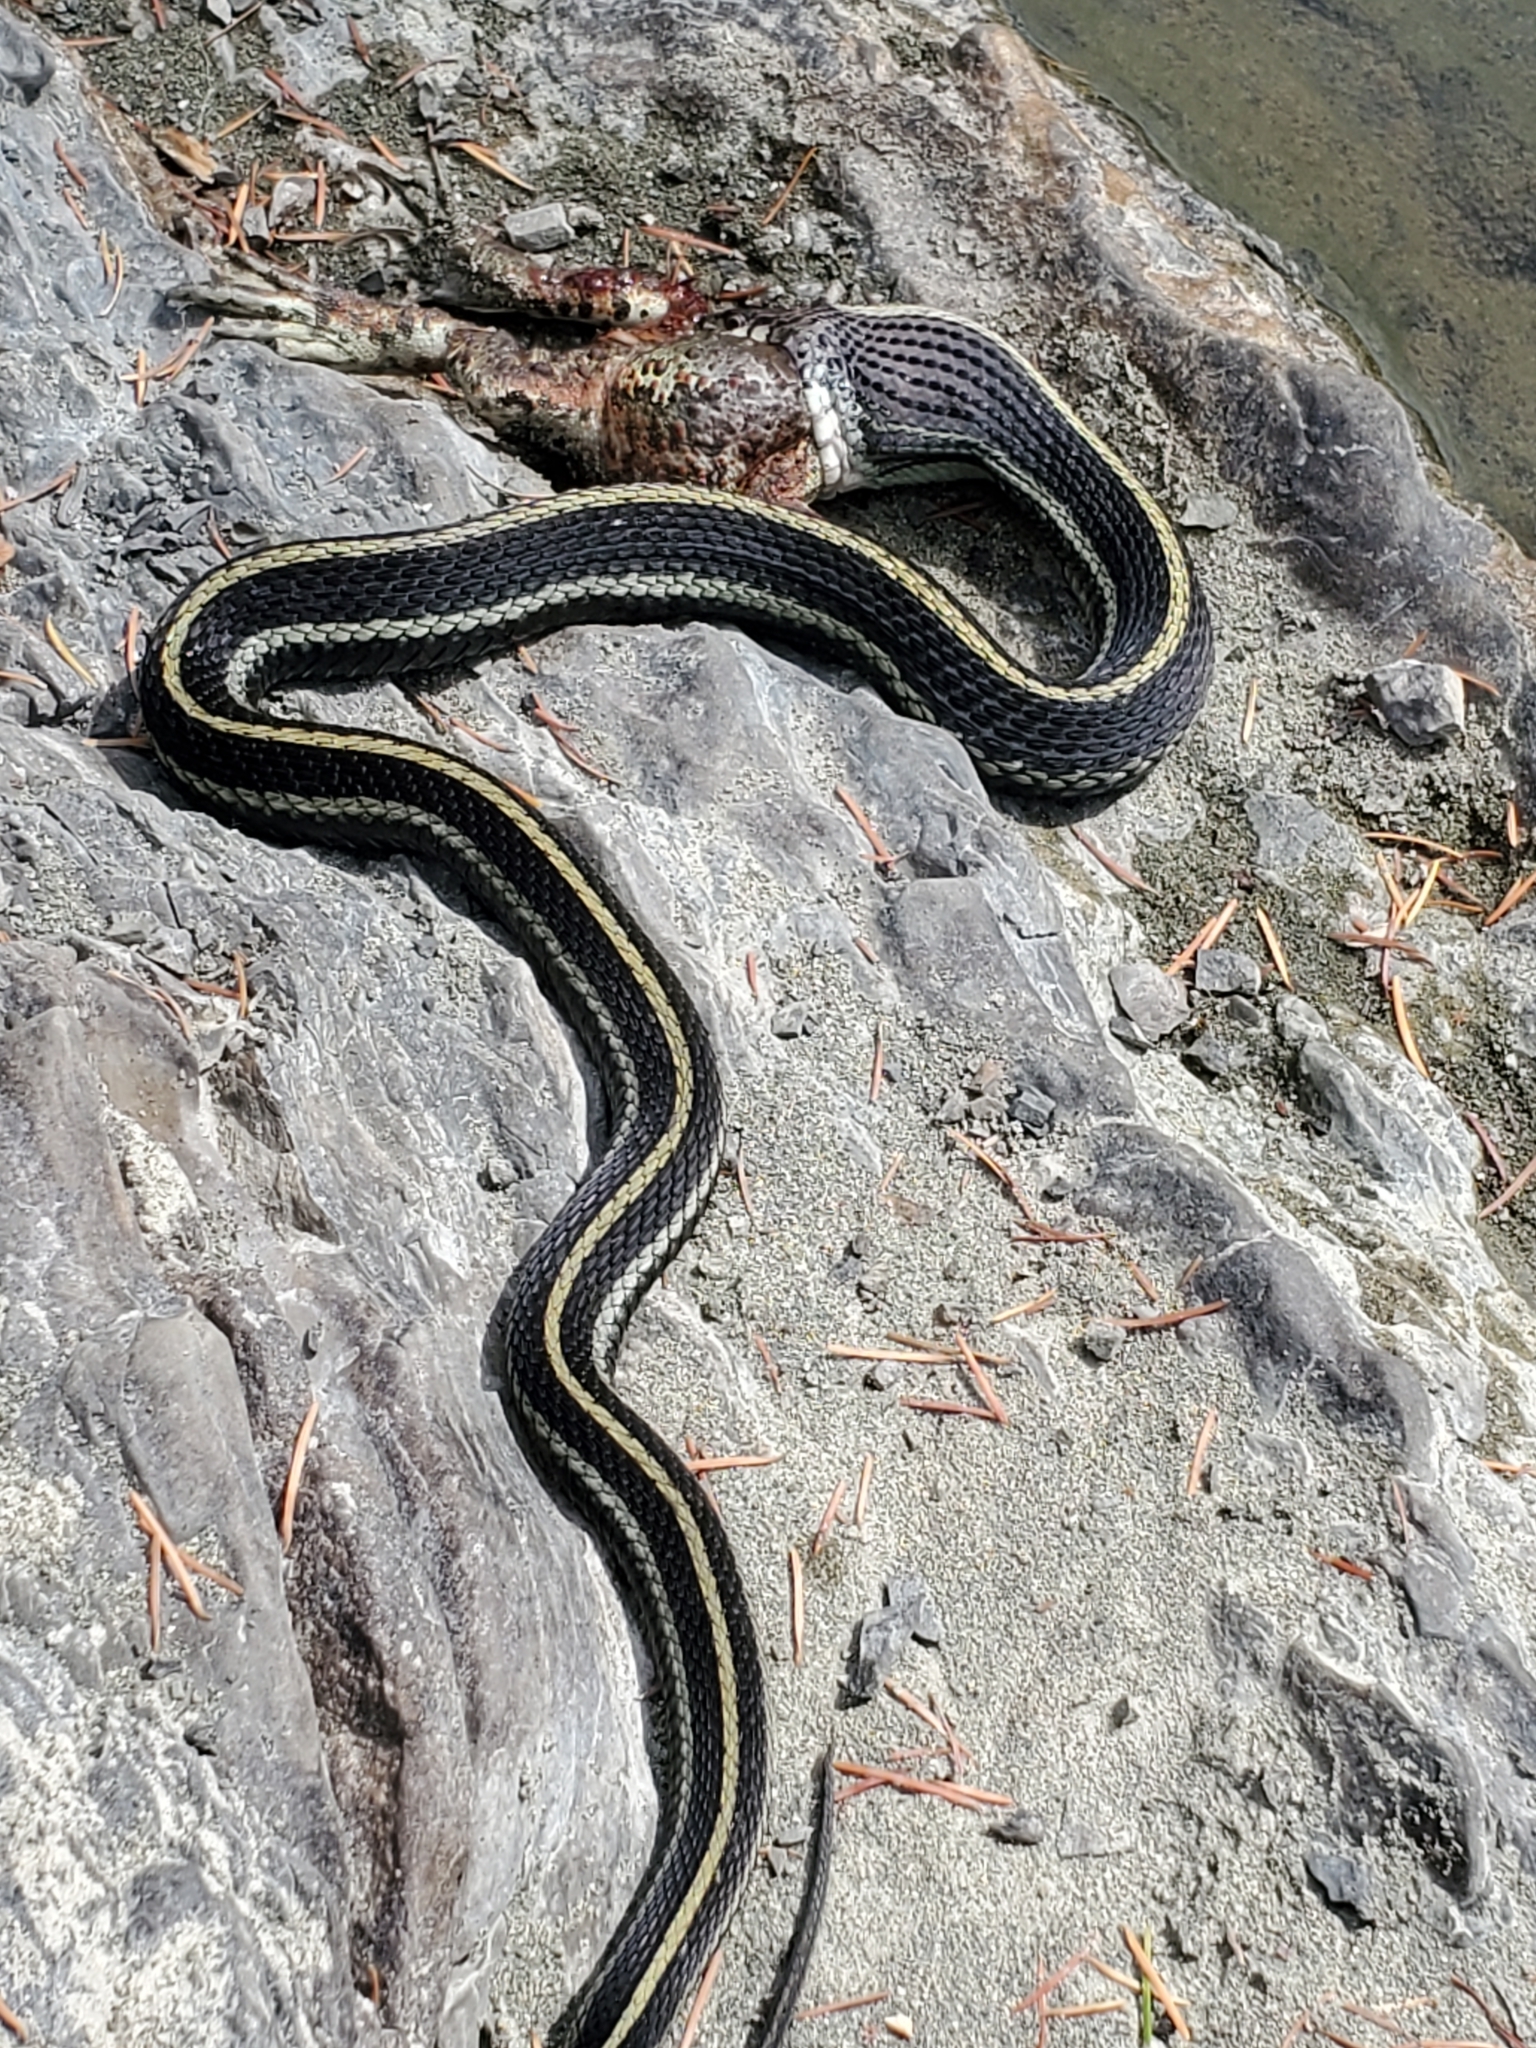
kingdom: Animalia
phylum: Chordata
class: Squamata
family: Colubridae
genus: Thamnophis
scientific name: Thamnophis sirtalis
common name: Common garter snake
